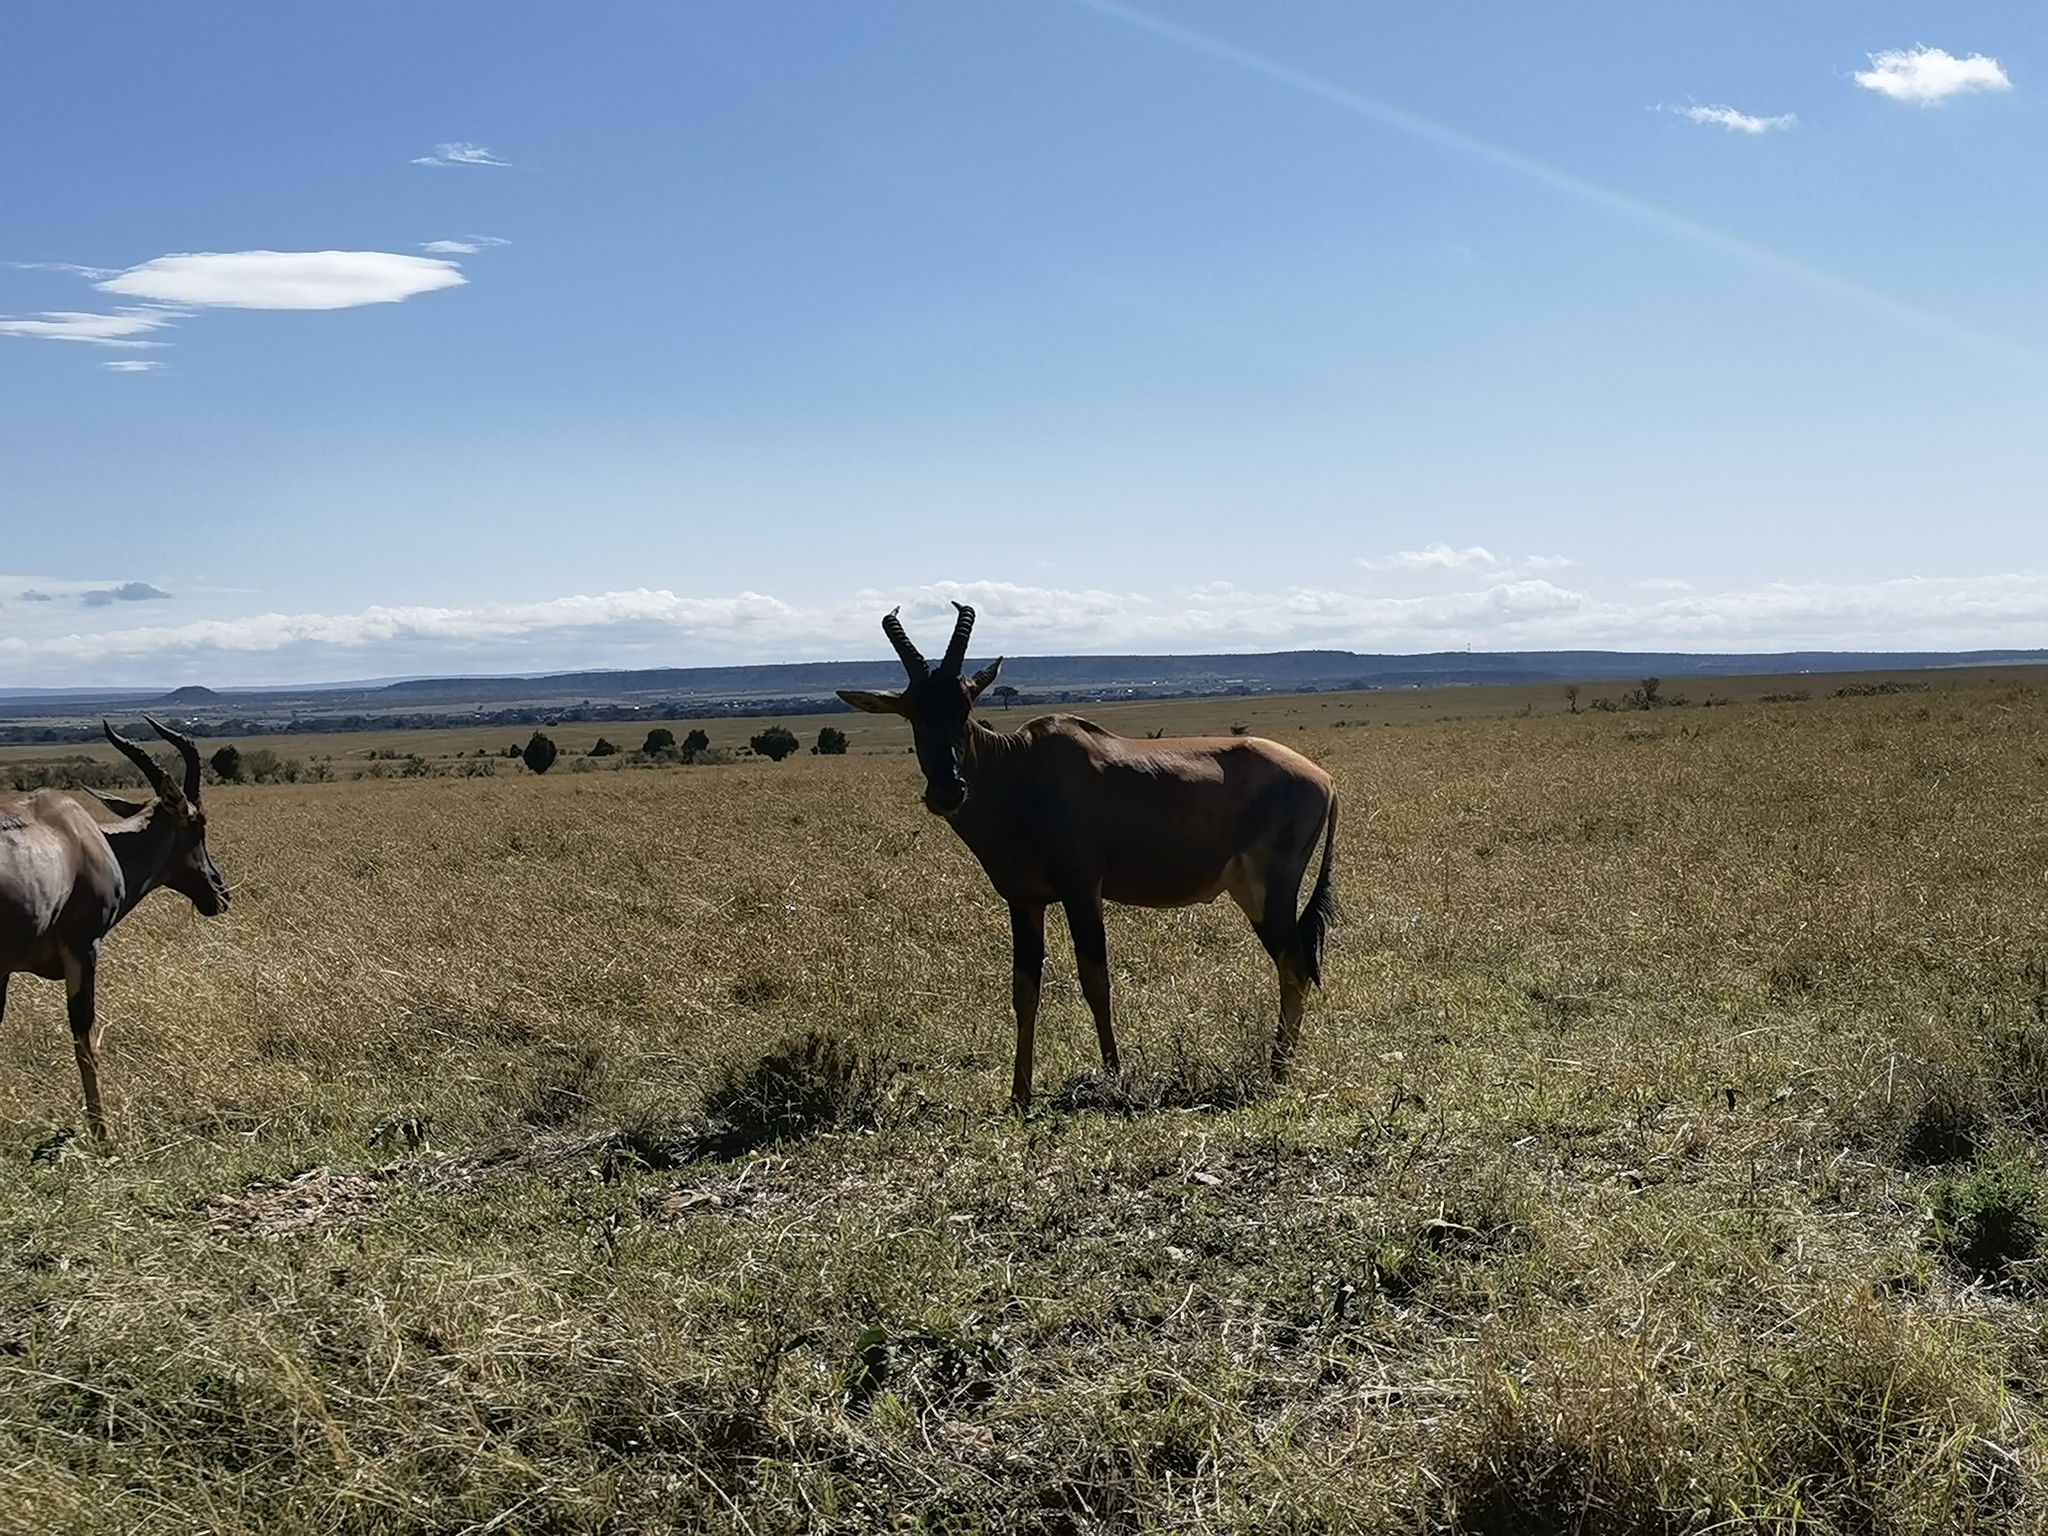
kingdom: Animalia
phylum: Chordata
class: Mammalia
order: Artiodactyla
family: Bovidae
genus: Damaliscus
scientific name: Damaliscus korrigum
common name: Topi
